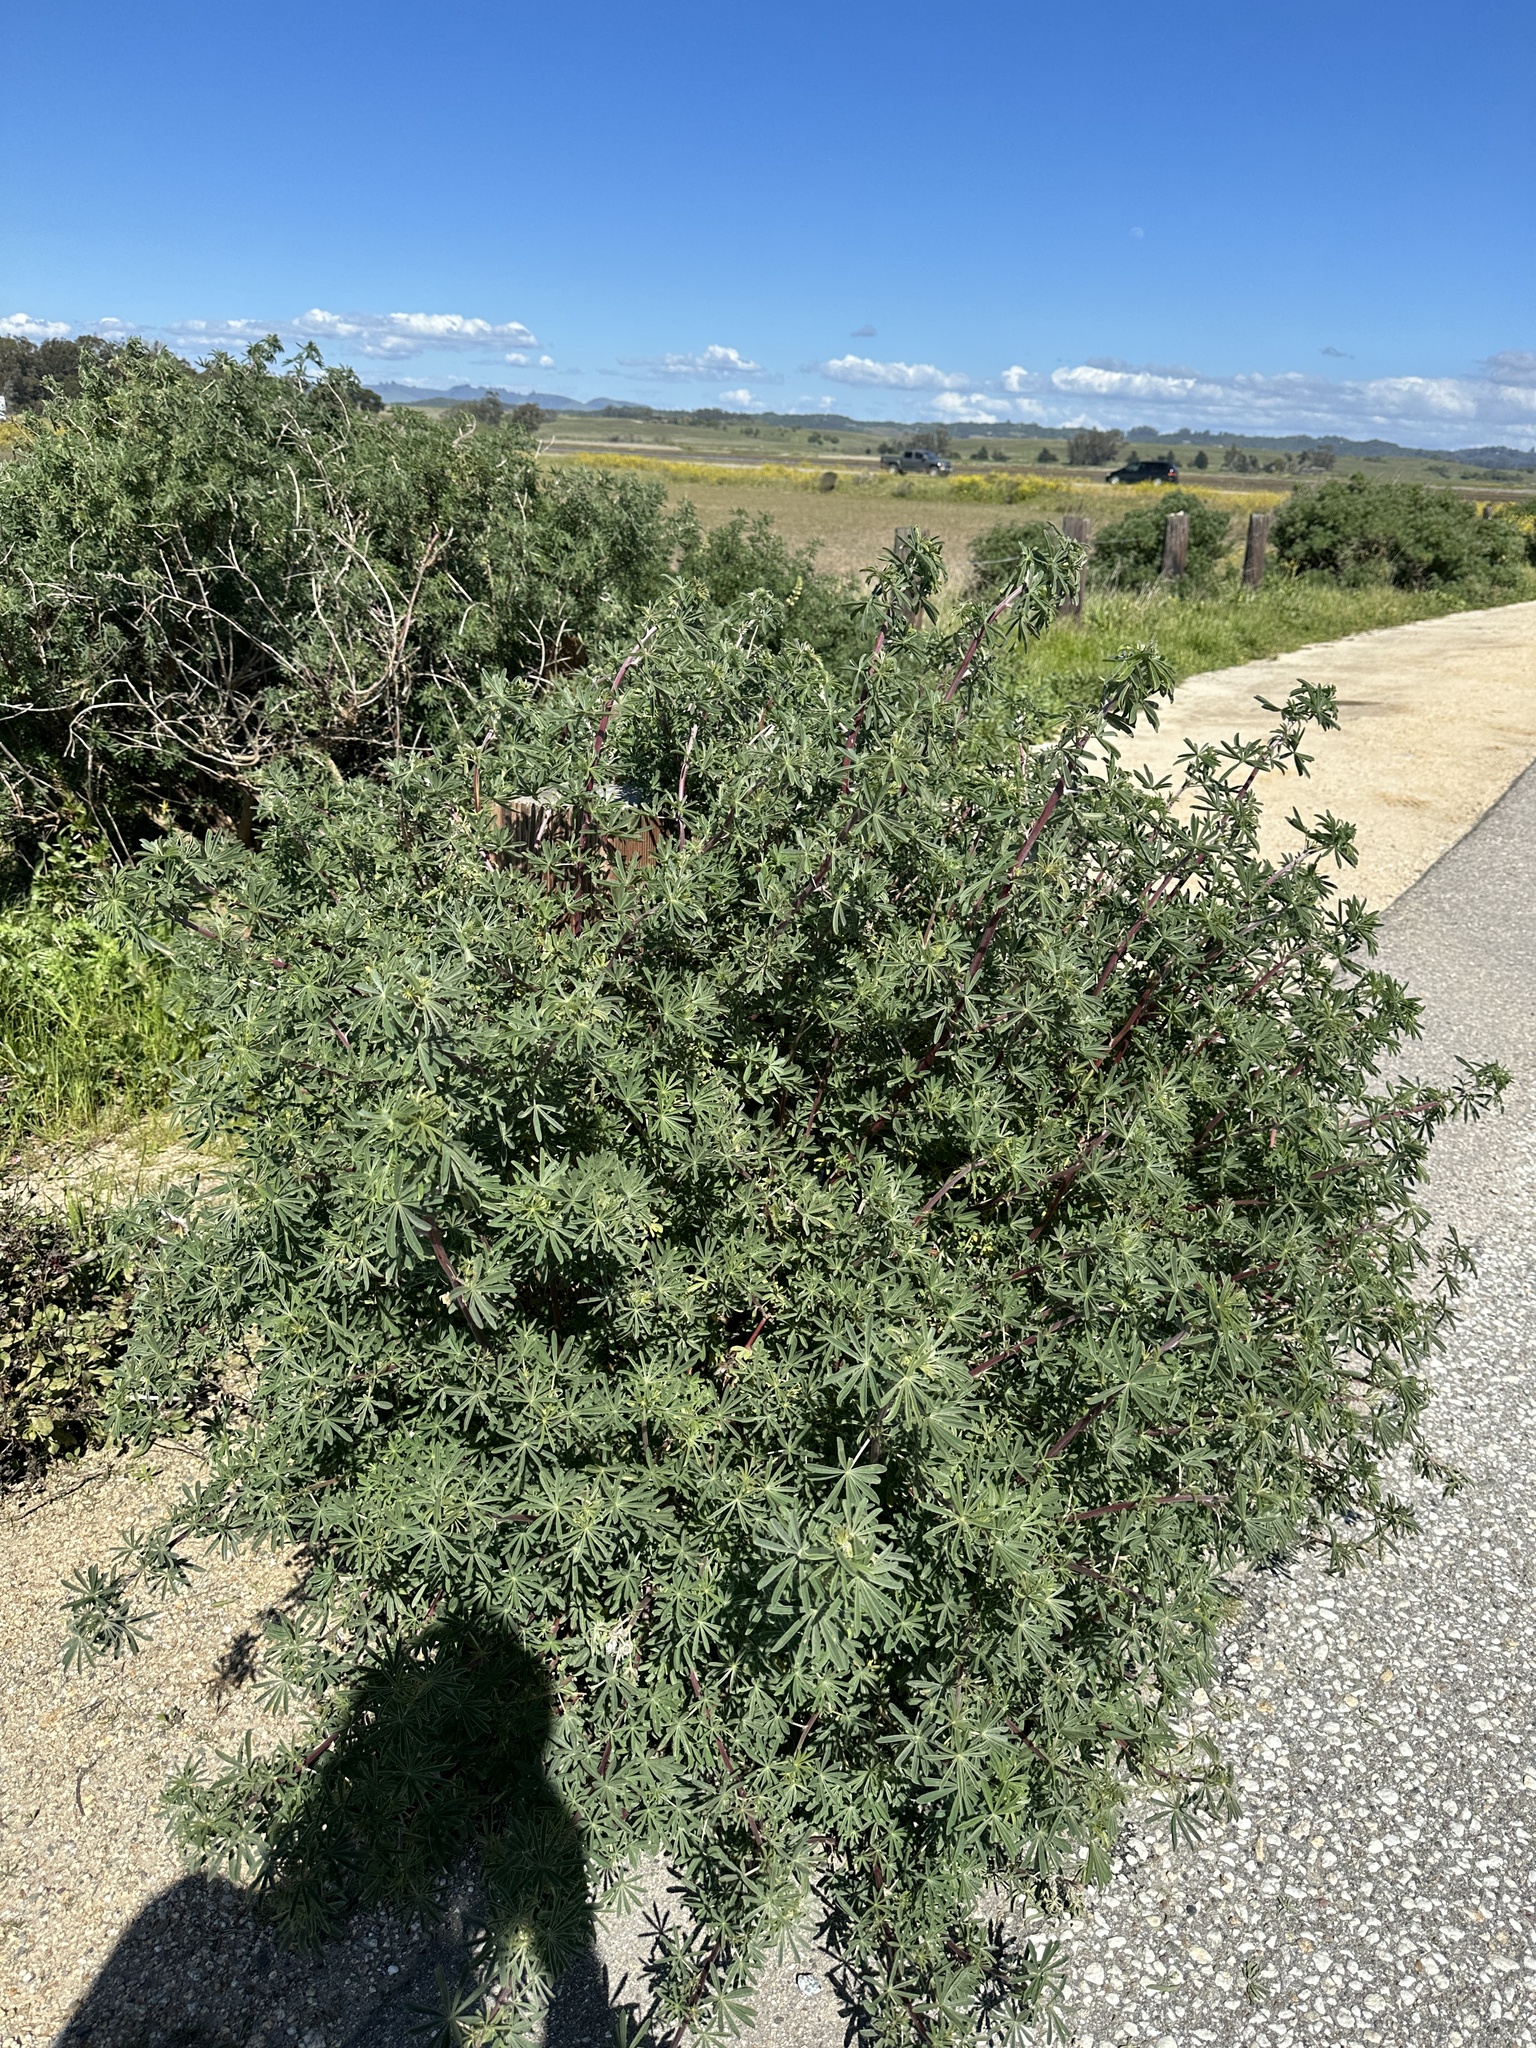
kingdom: Plantae
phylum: Tracheophyta
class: Magnoliopsida
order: Fabales
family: Fabaceae
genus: Lupinus
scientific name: Lupinus arboreus
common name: Yellow bush lupine
